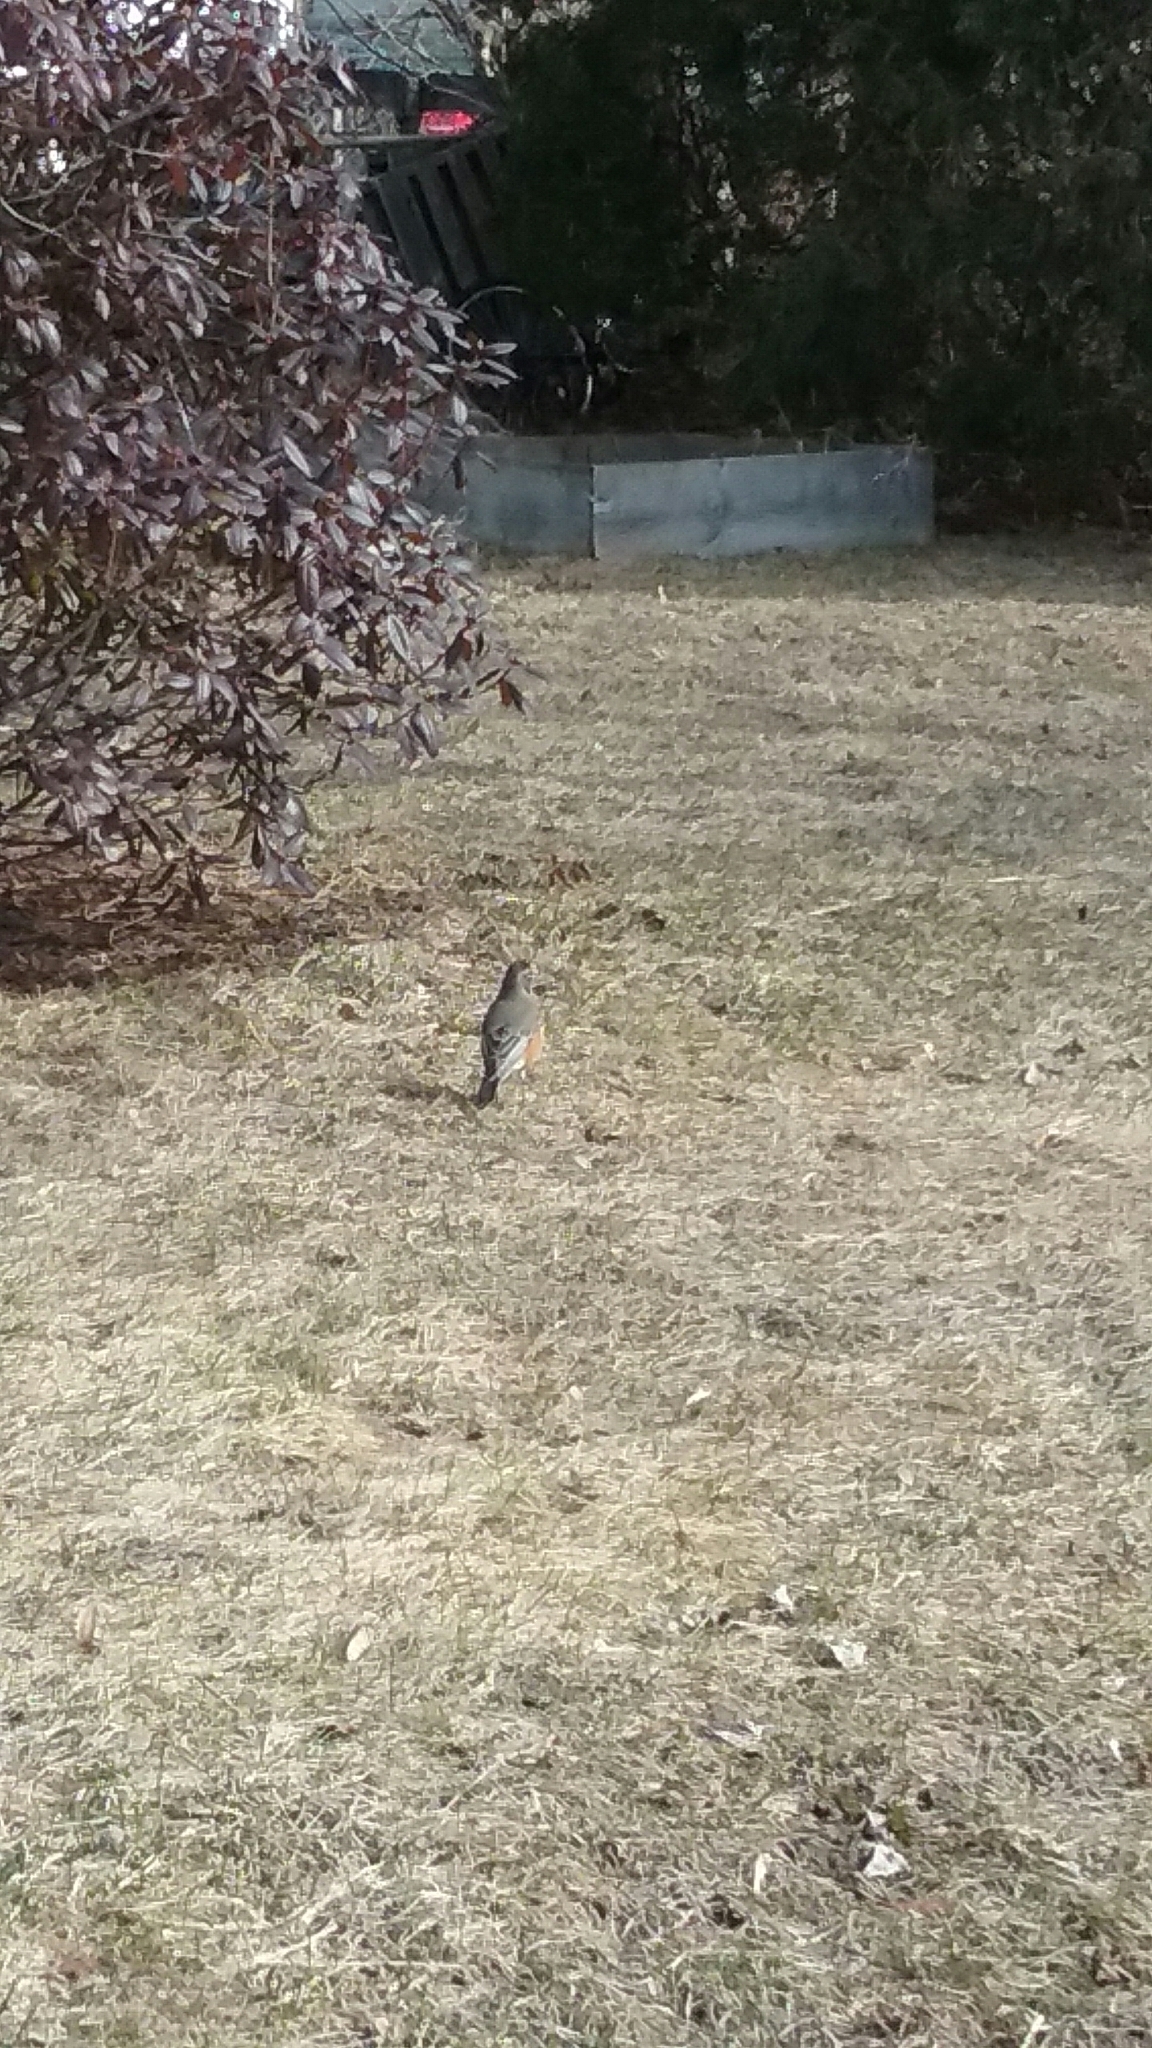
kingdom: Animalia
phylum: Chordata
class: Aves
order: Passeriformes
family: Turdidae
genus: Turdus
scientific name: Turdus migratorius
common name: American robin
